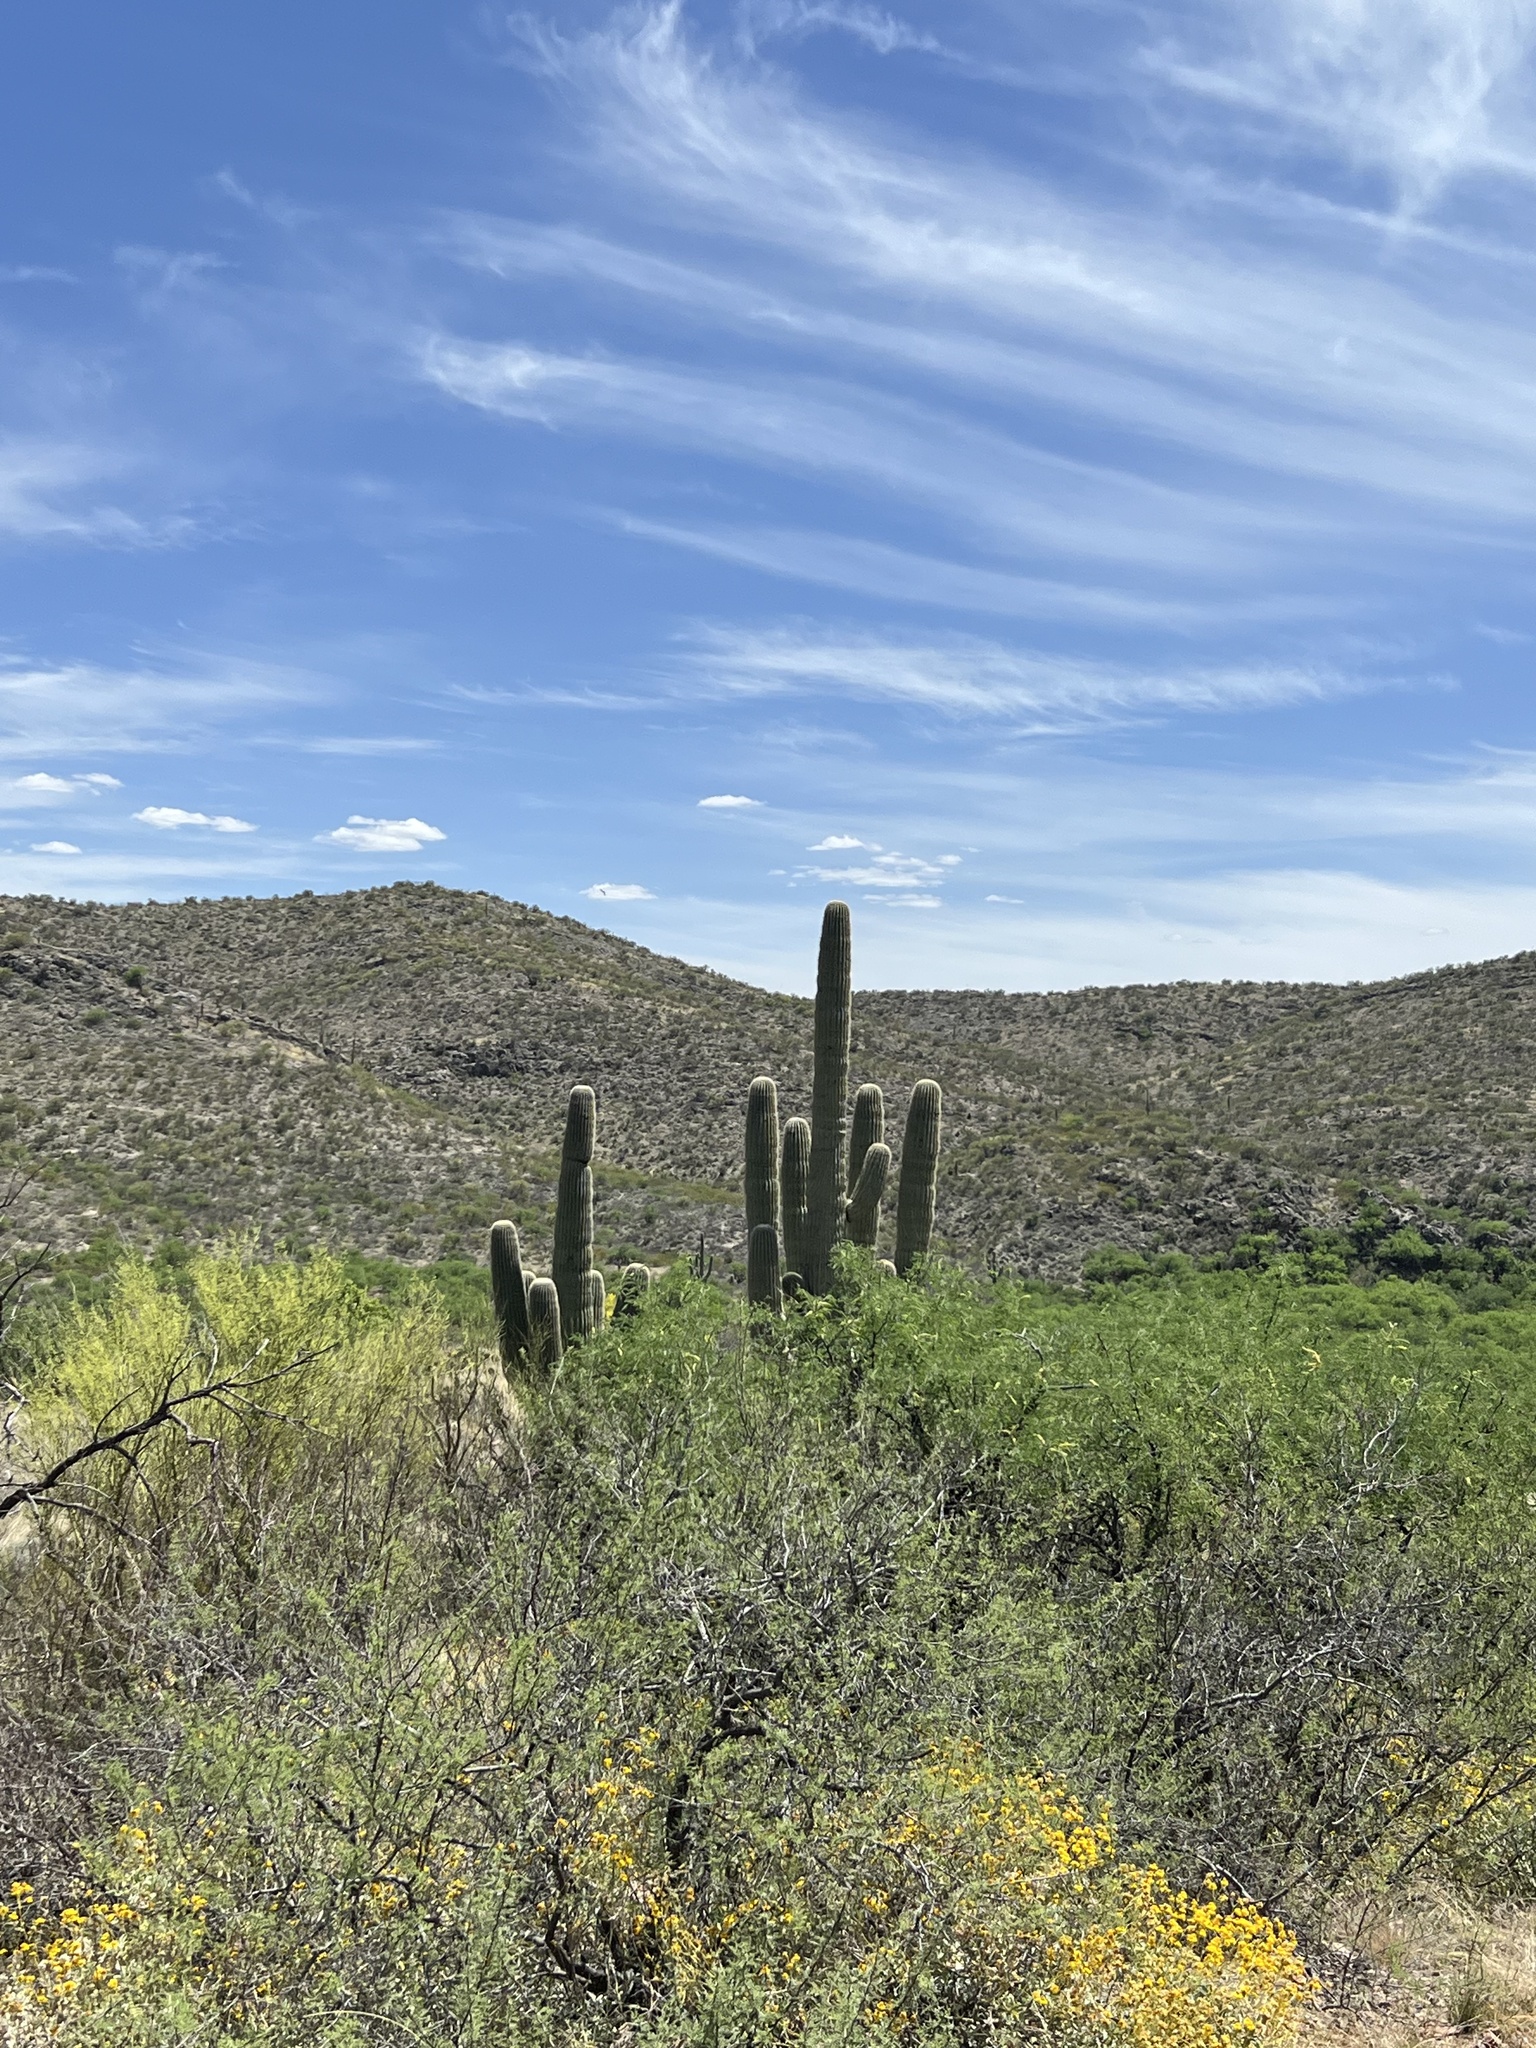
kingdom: Plantae
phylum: Tracheophyta
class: Magnoliopsida
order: Caryophyllales
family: Cactaceae
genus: Carnegiea
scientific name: Carnegiea gigantea
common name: Saguaro
